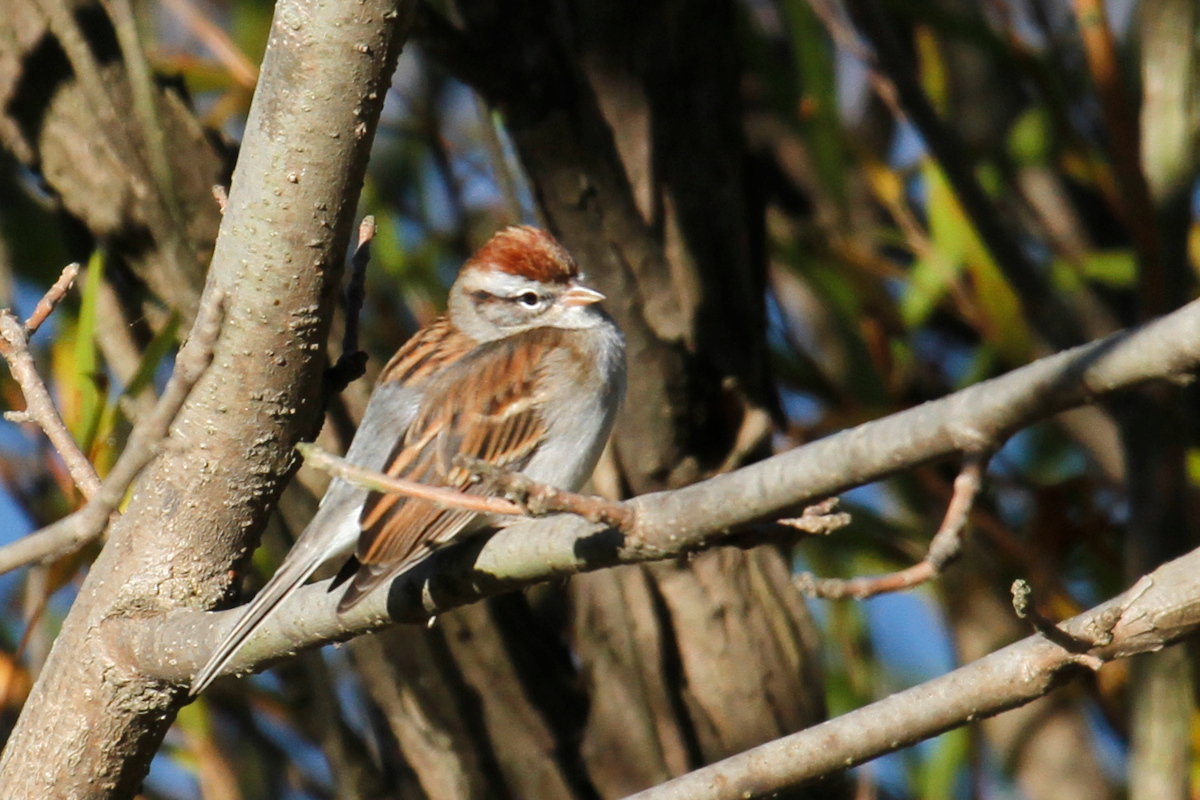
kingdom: Animalia
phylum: Chordata
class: Aves
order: Passeriformes
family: Passerellidae
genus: Spizella
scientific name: Spizella passerina
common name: Chipping sparrow
